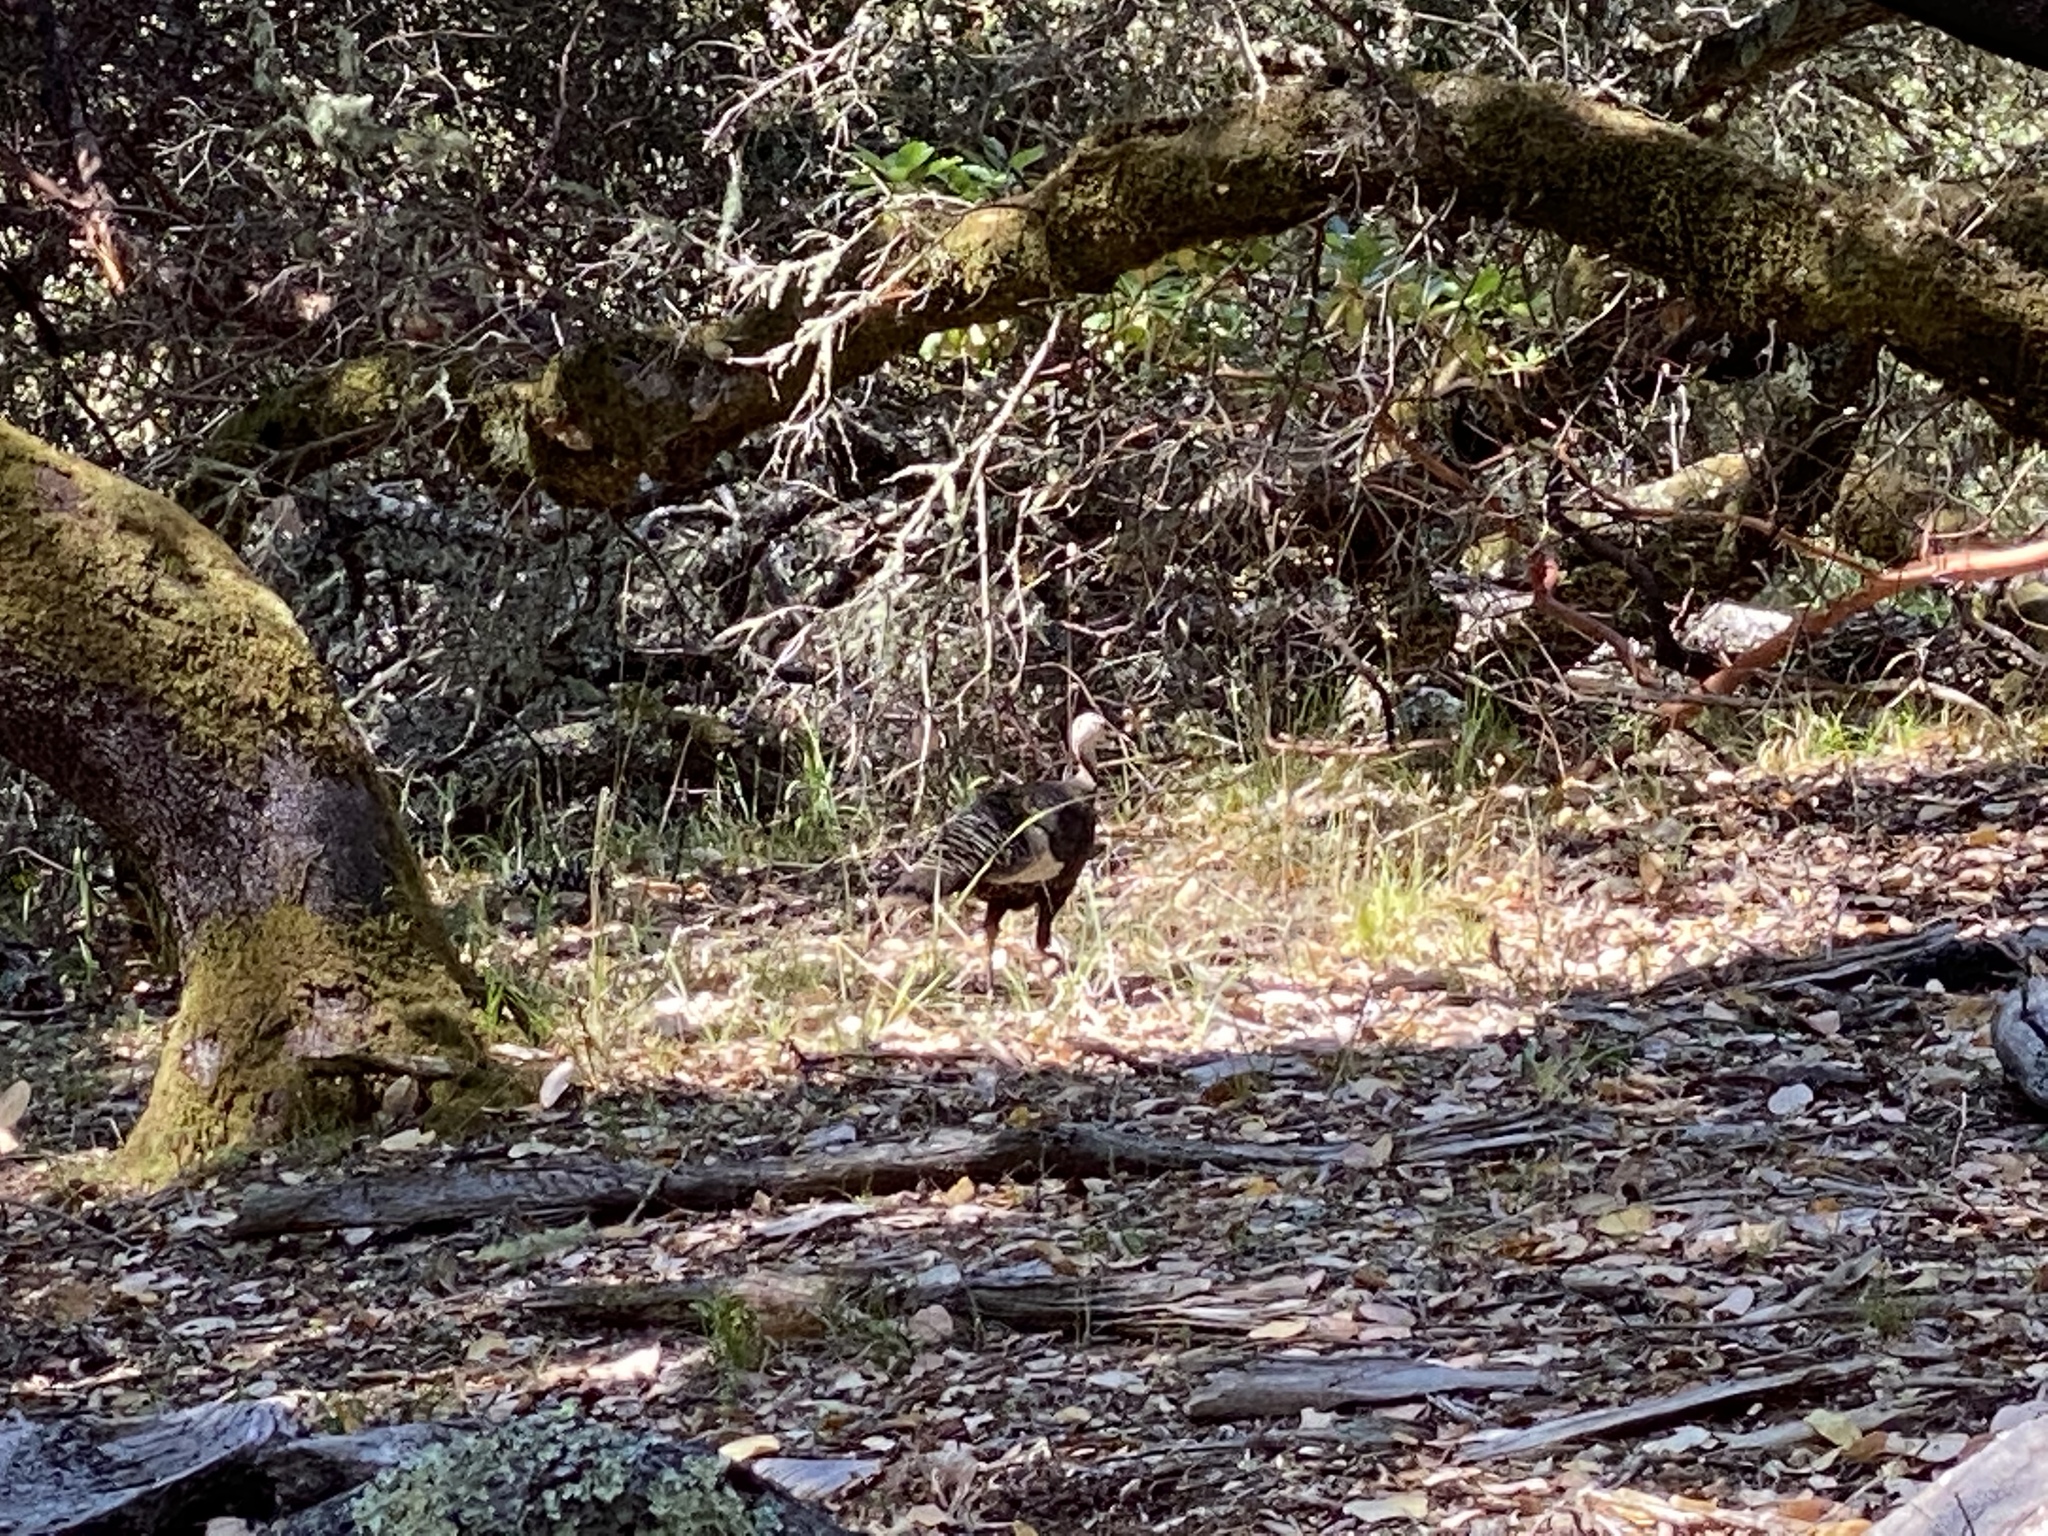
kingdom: Animalia
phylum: Chordata
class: Aves
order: Galliformes
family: Phasianidae
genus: Meleagris
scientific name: Meleagris gallopavo
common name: Wild turkey
